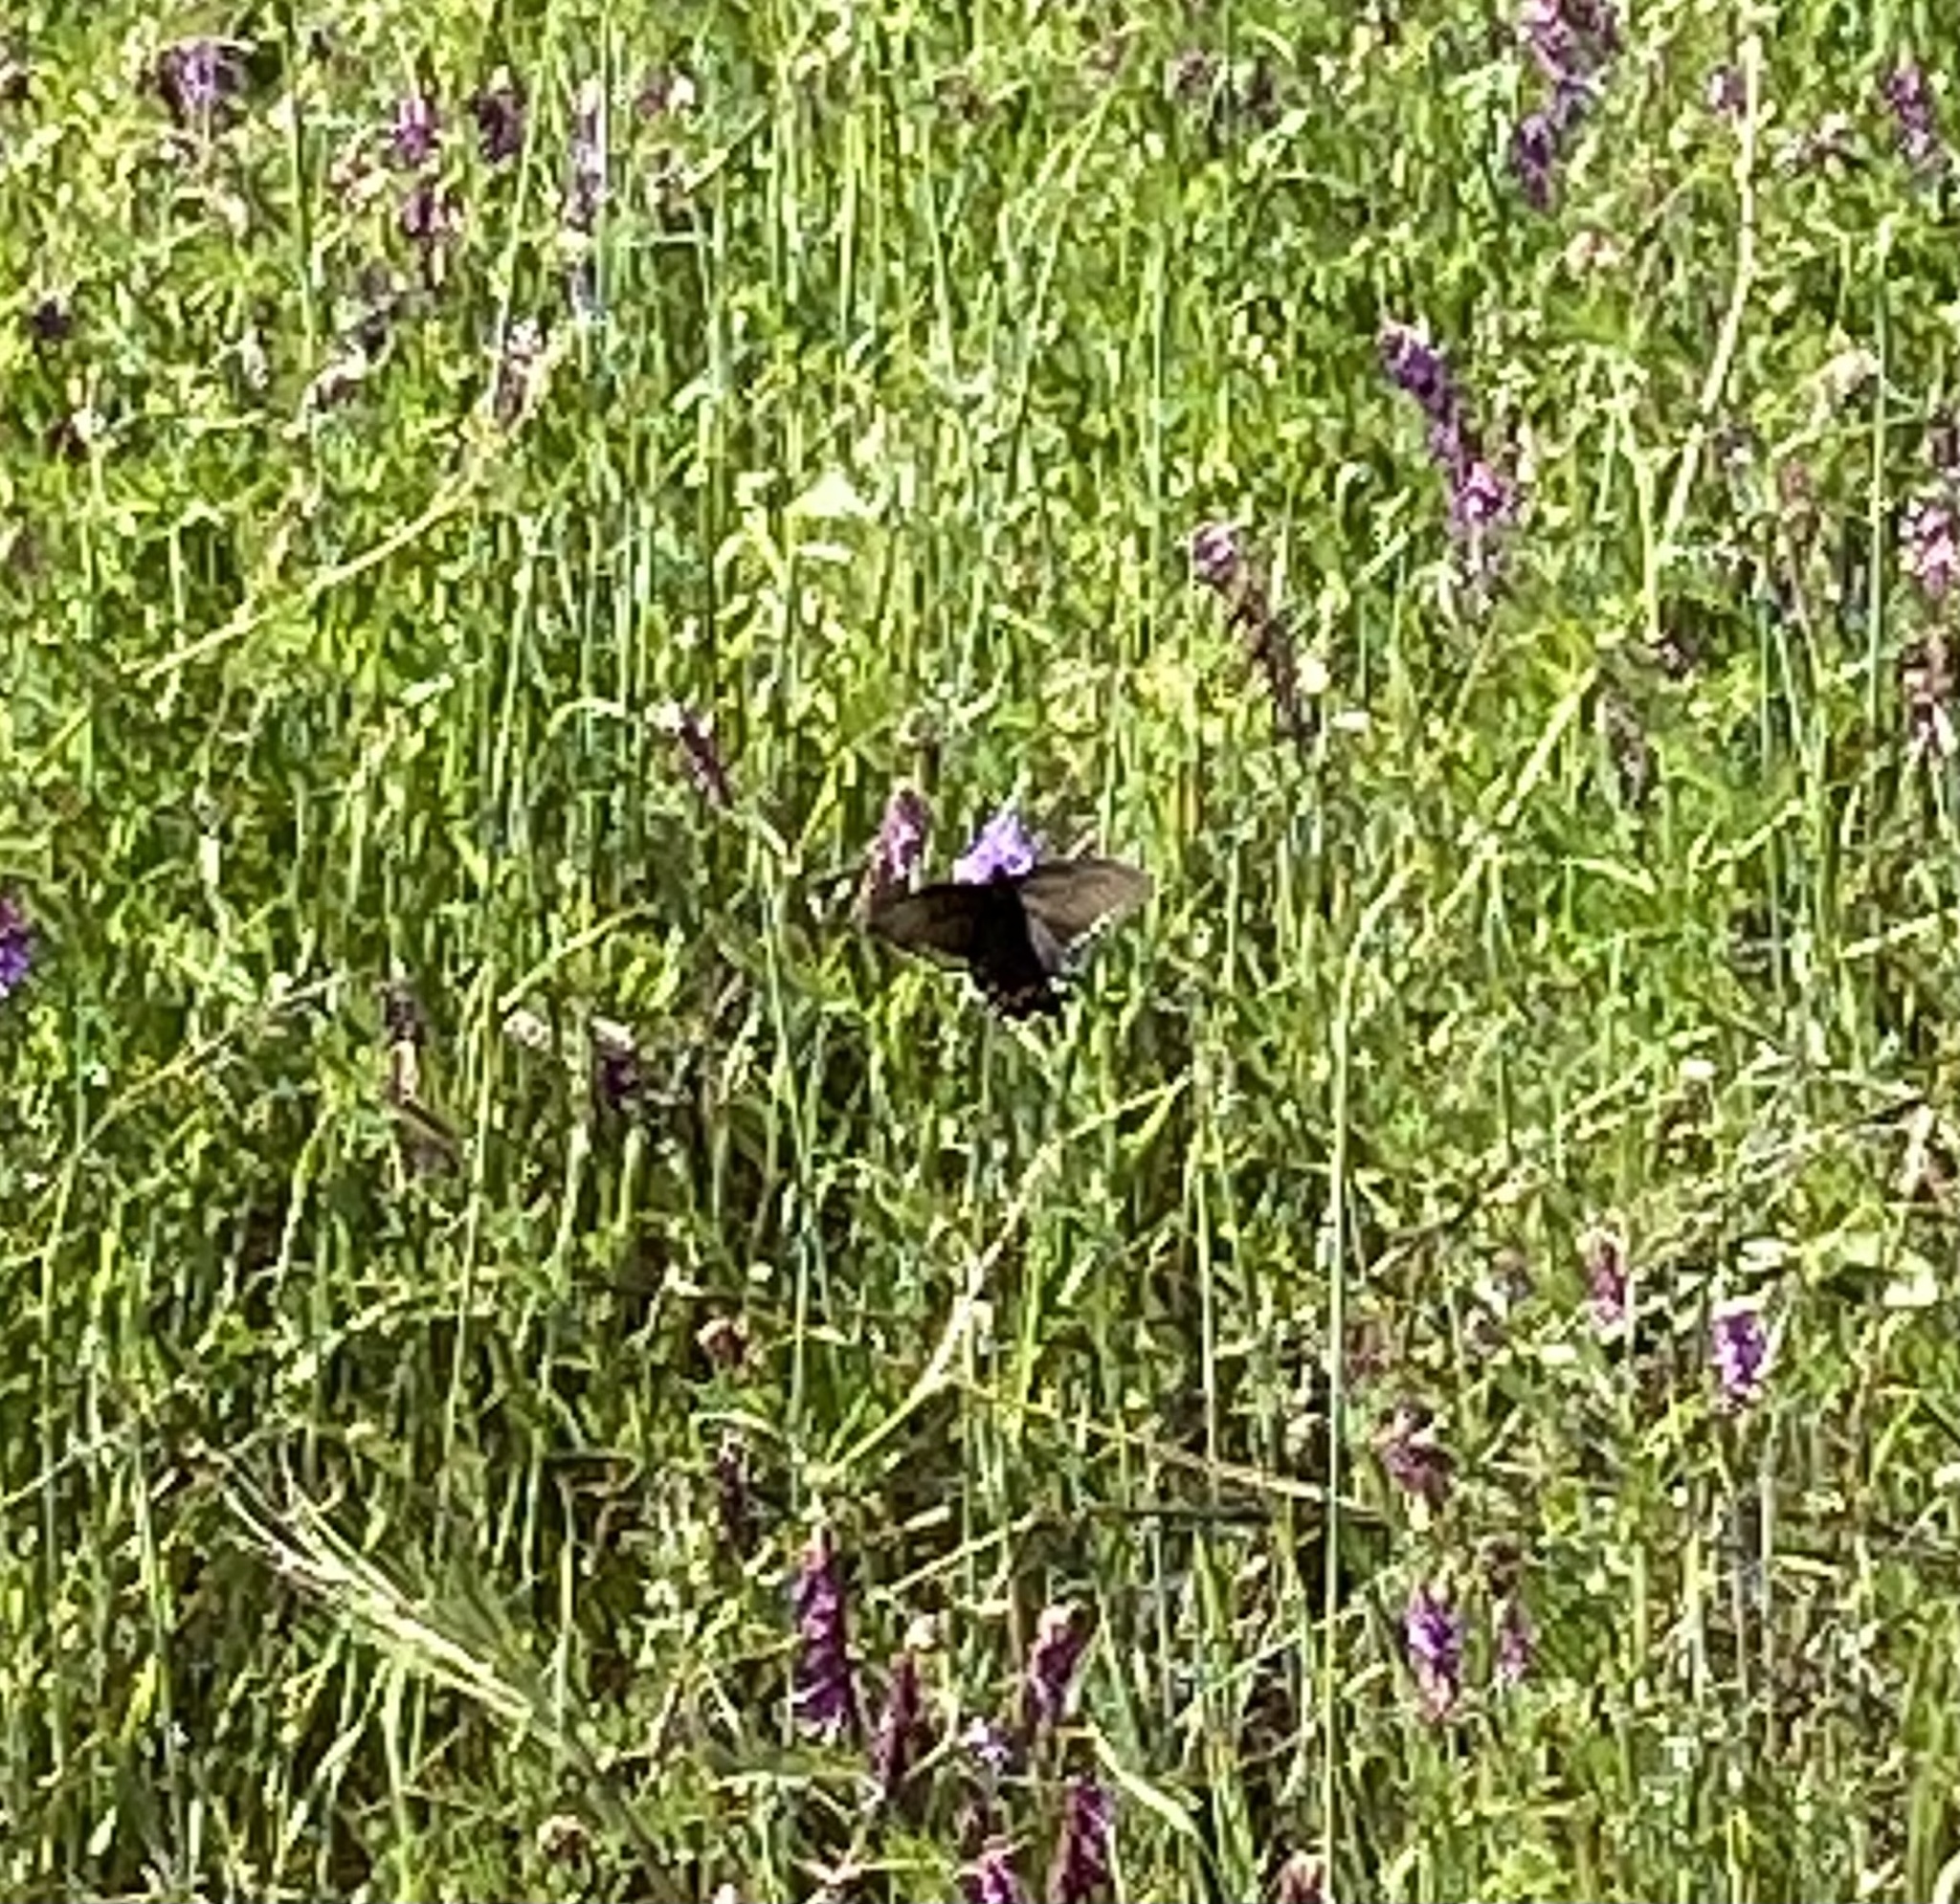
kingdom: Animalia
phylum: Arthropoda
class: Insecta
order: Lepidoptera
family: Papilionidae
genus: Battus
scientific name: Battus philenor
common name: Pipevine swallowtail
